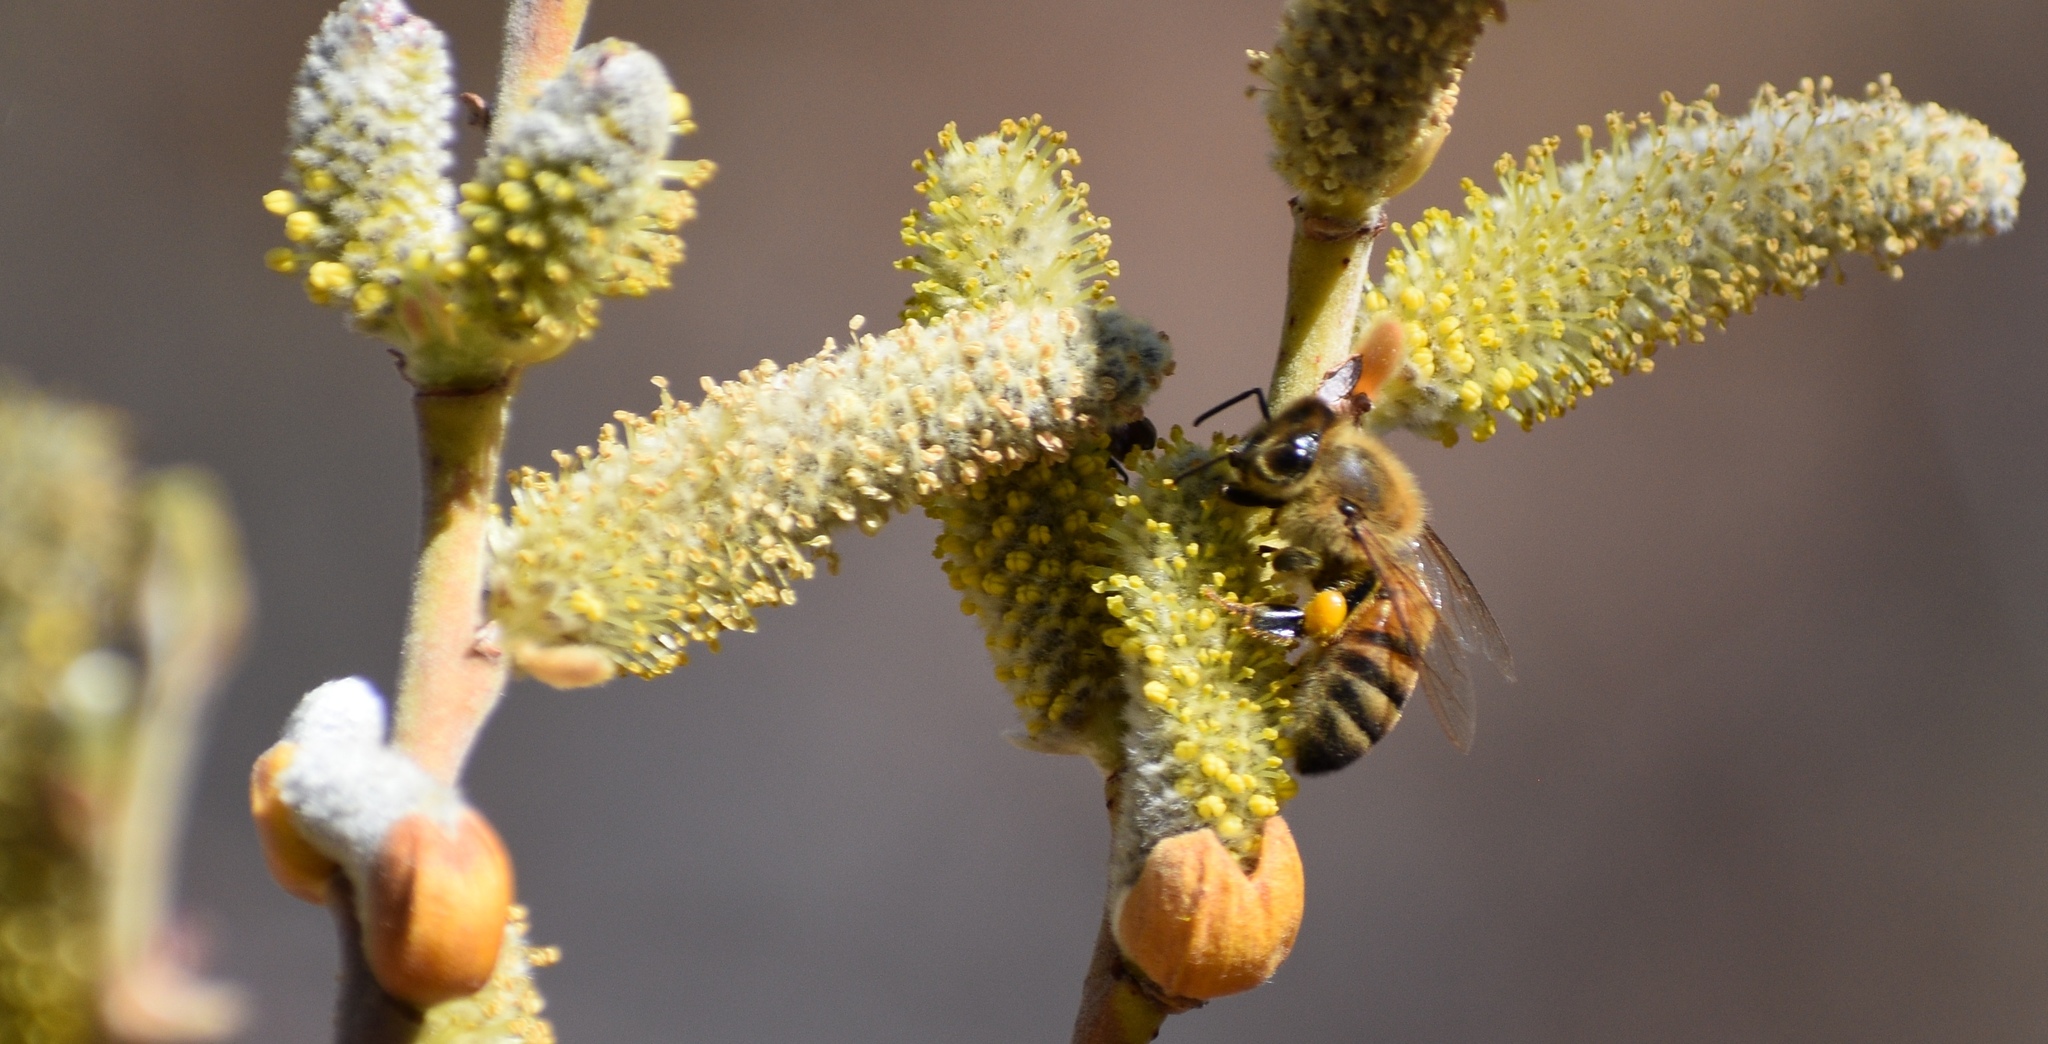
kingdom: Animalia
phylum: Arthropoda
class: Insecta
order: Hymenoptera
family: Apidae
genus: Apis
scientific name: Apis mellifera
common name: Honey bee
